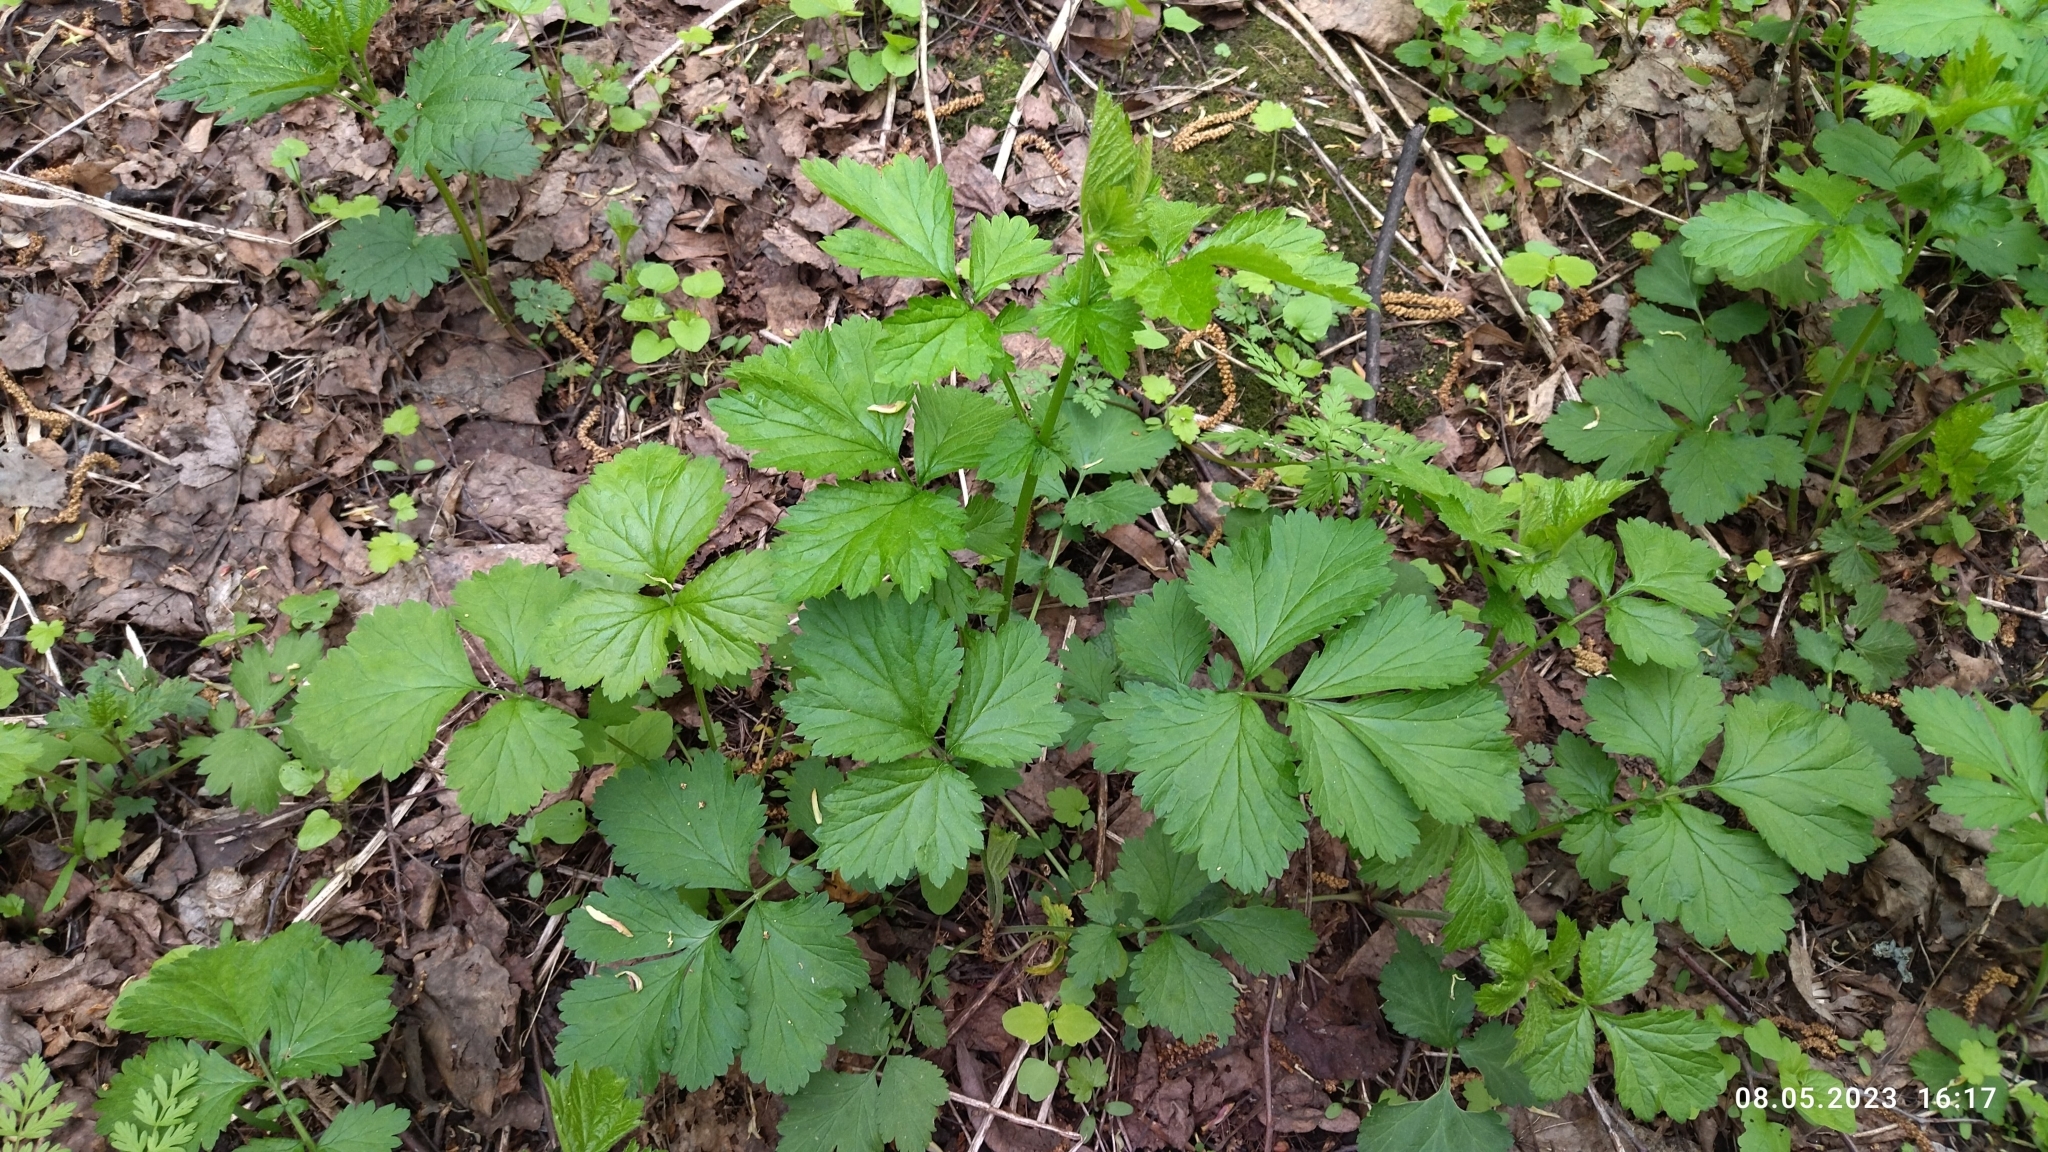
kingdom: Plantae
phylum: Tracheophyta
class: Magnoliopsida
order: Rosales
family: Rosaceae
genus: Geum
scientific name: Geum urbanum
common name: Wood avens
